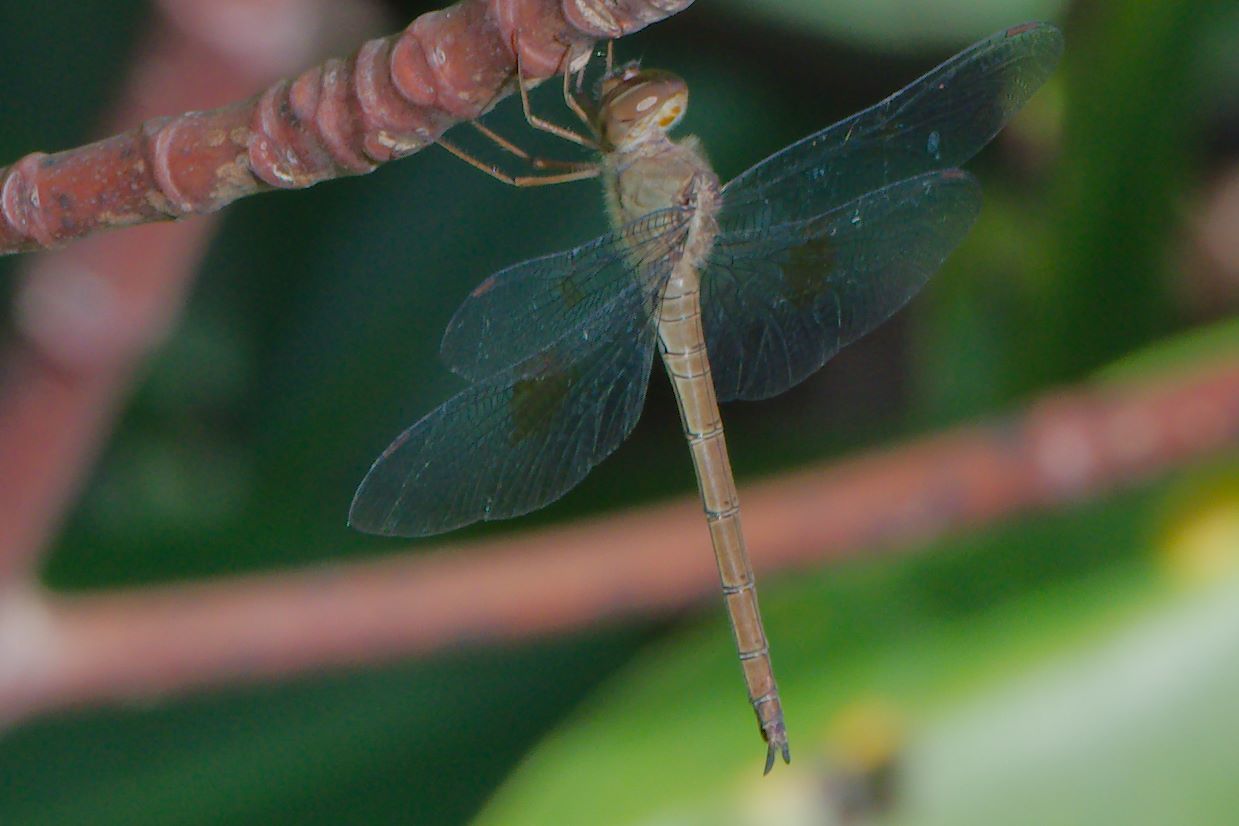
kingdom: Animalia
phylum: Arthropoda
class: Insecta
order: Odonata
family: Libellulidae
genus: Tholymis
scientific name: Tholymis citrina
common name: Evening skimmer
